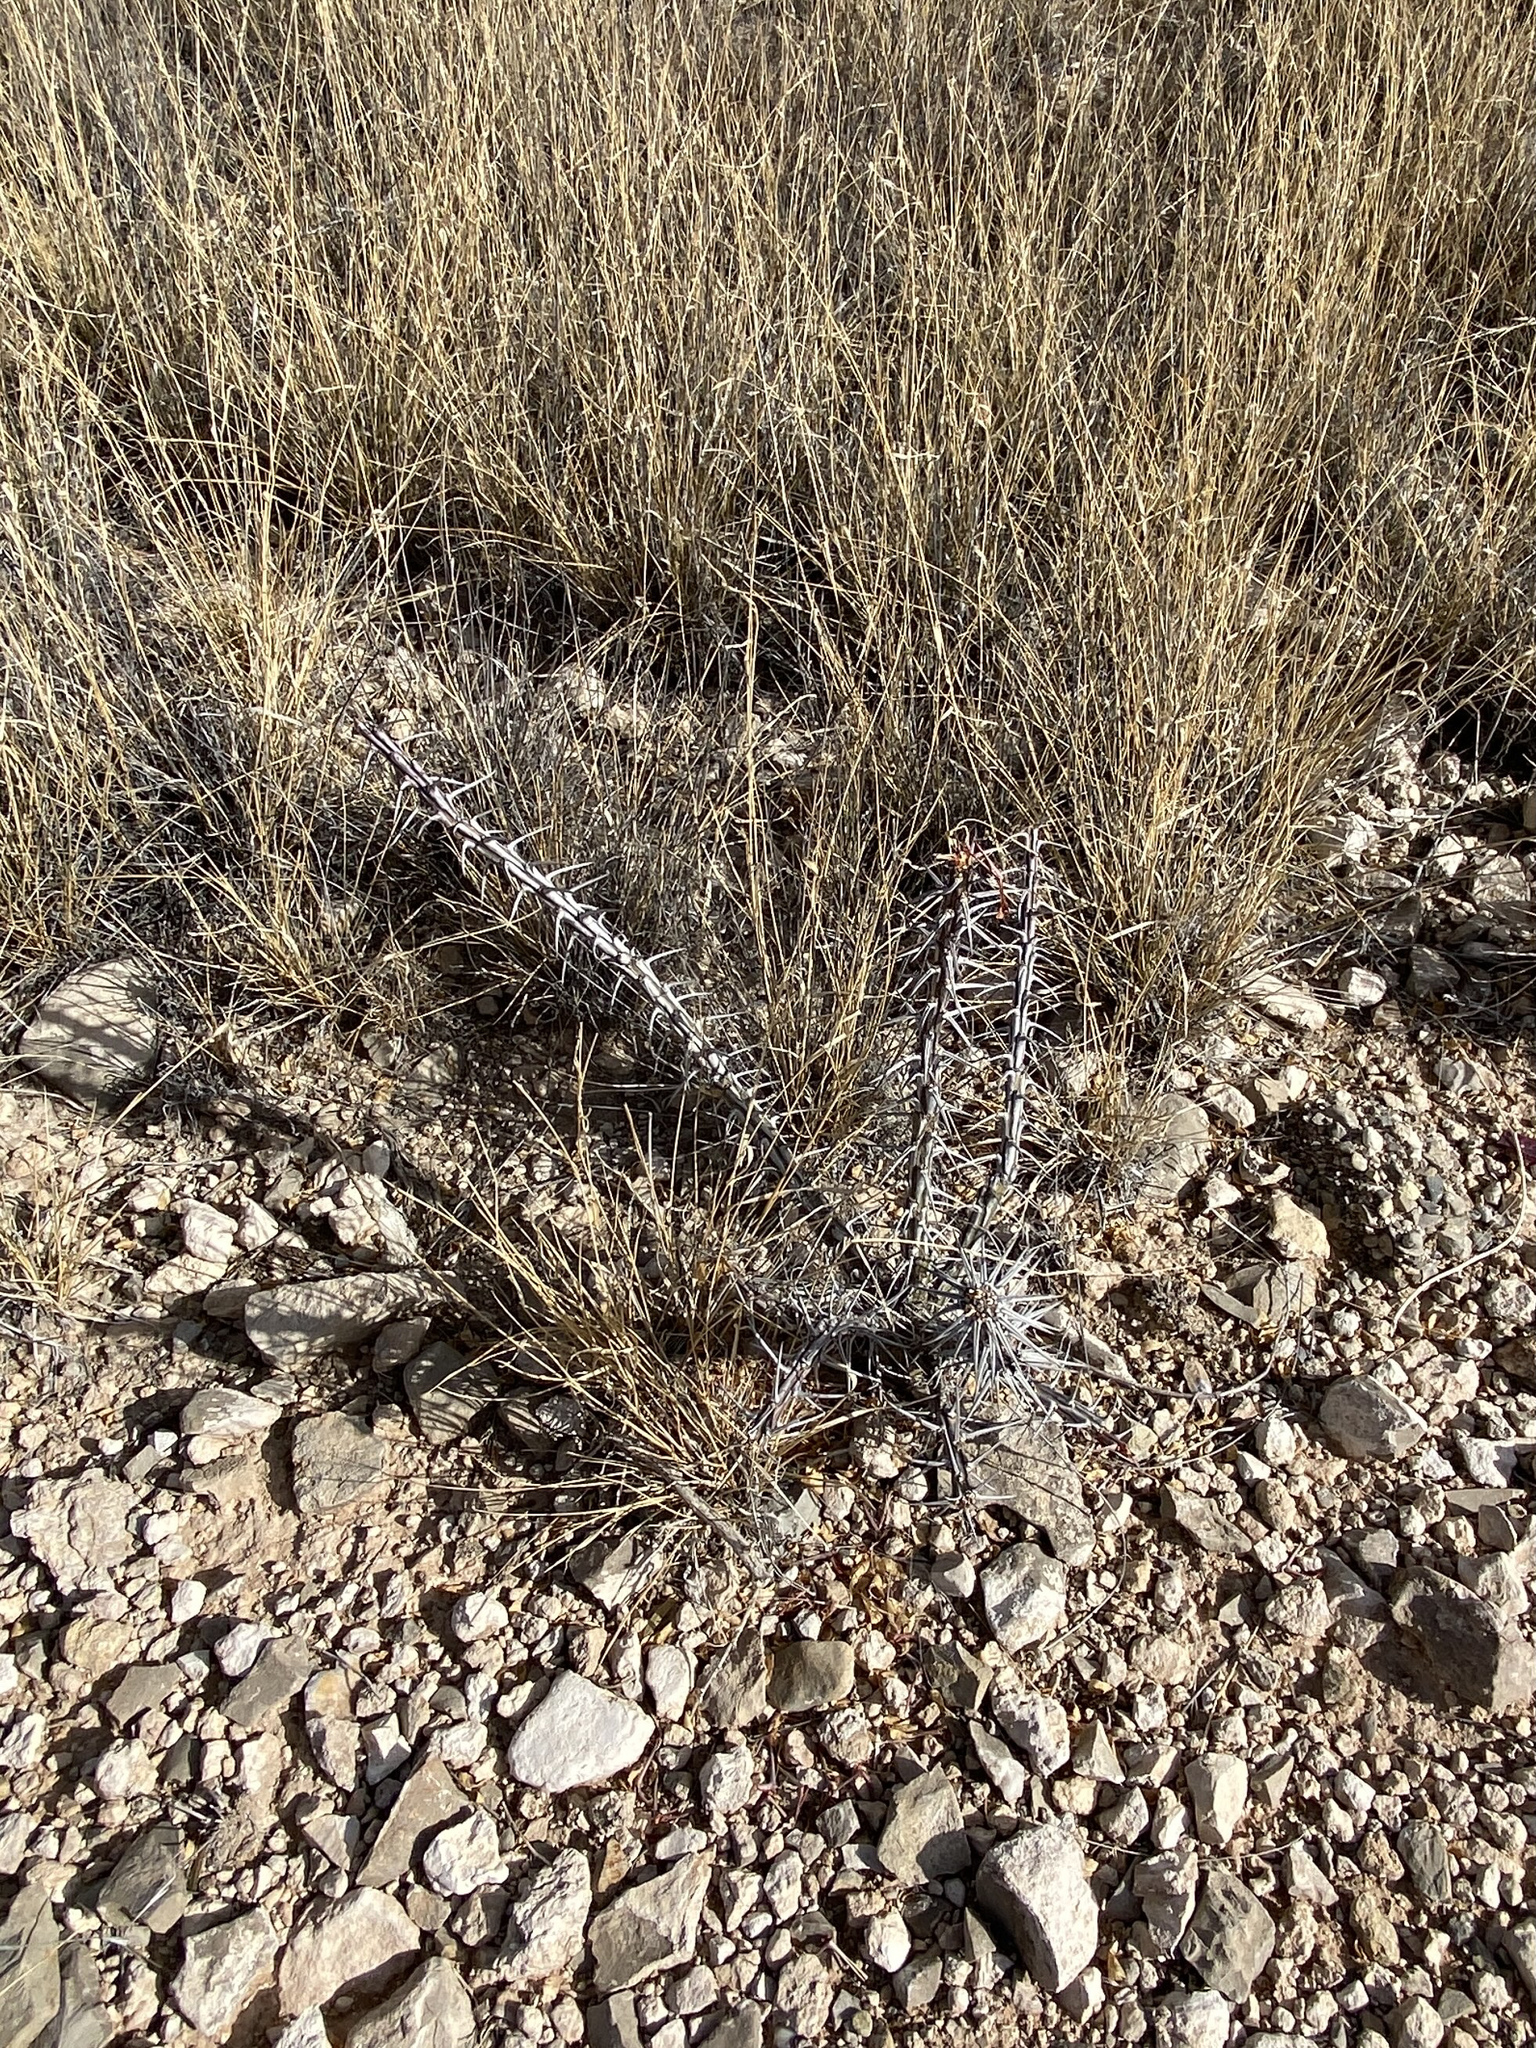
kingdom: Plantae
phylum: Tracheophyta
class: Magnoliopsida
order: Ericales
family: Fouquieriaceae
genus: Fouquieria
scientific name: Fouquieria splendens
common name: Vine-cactus
